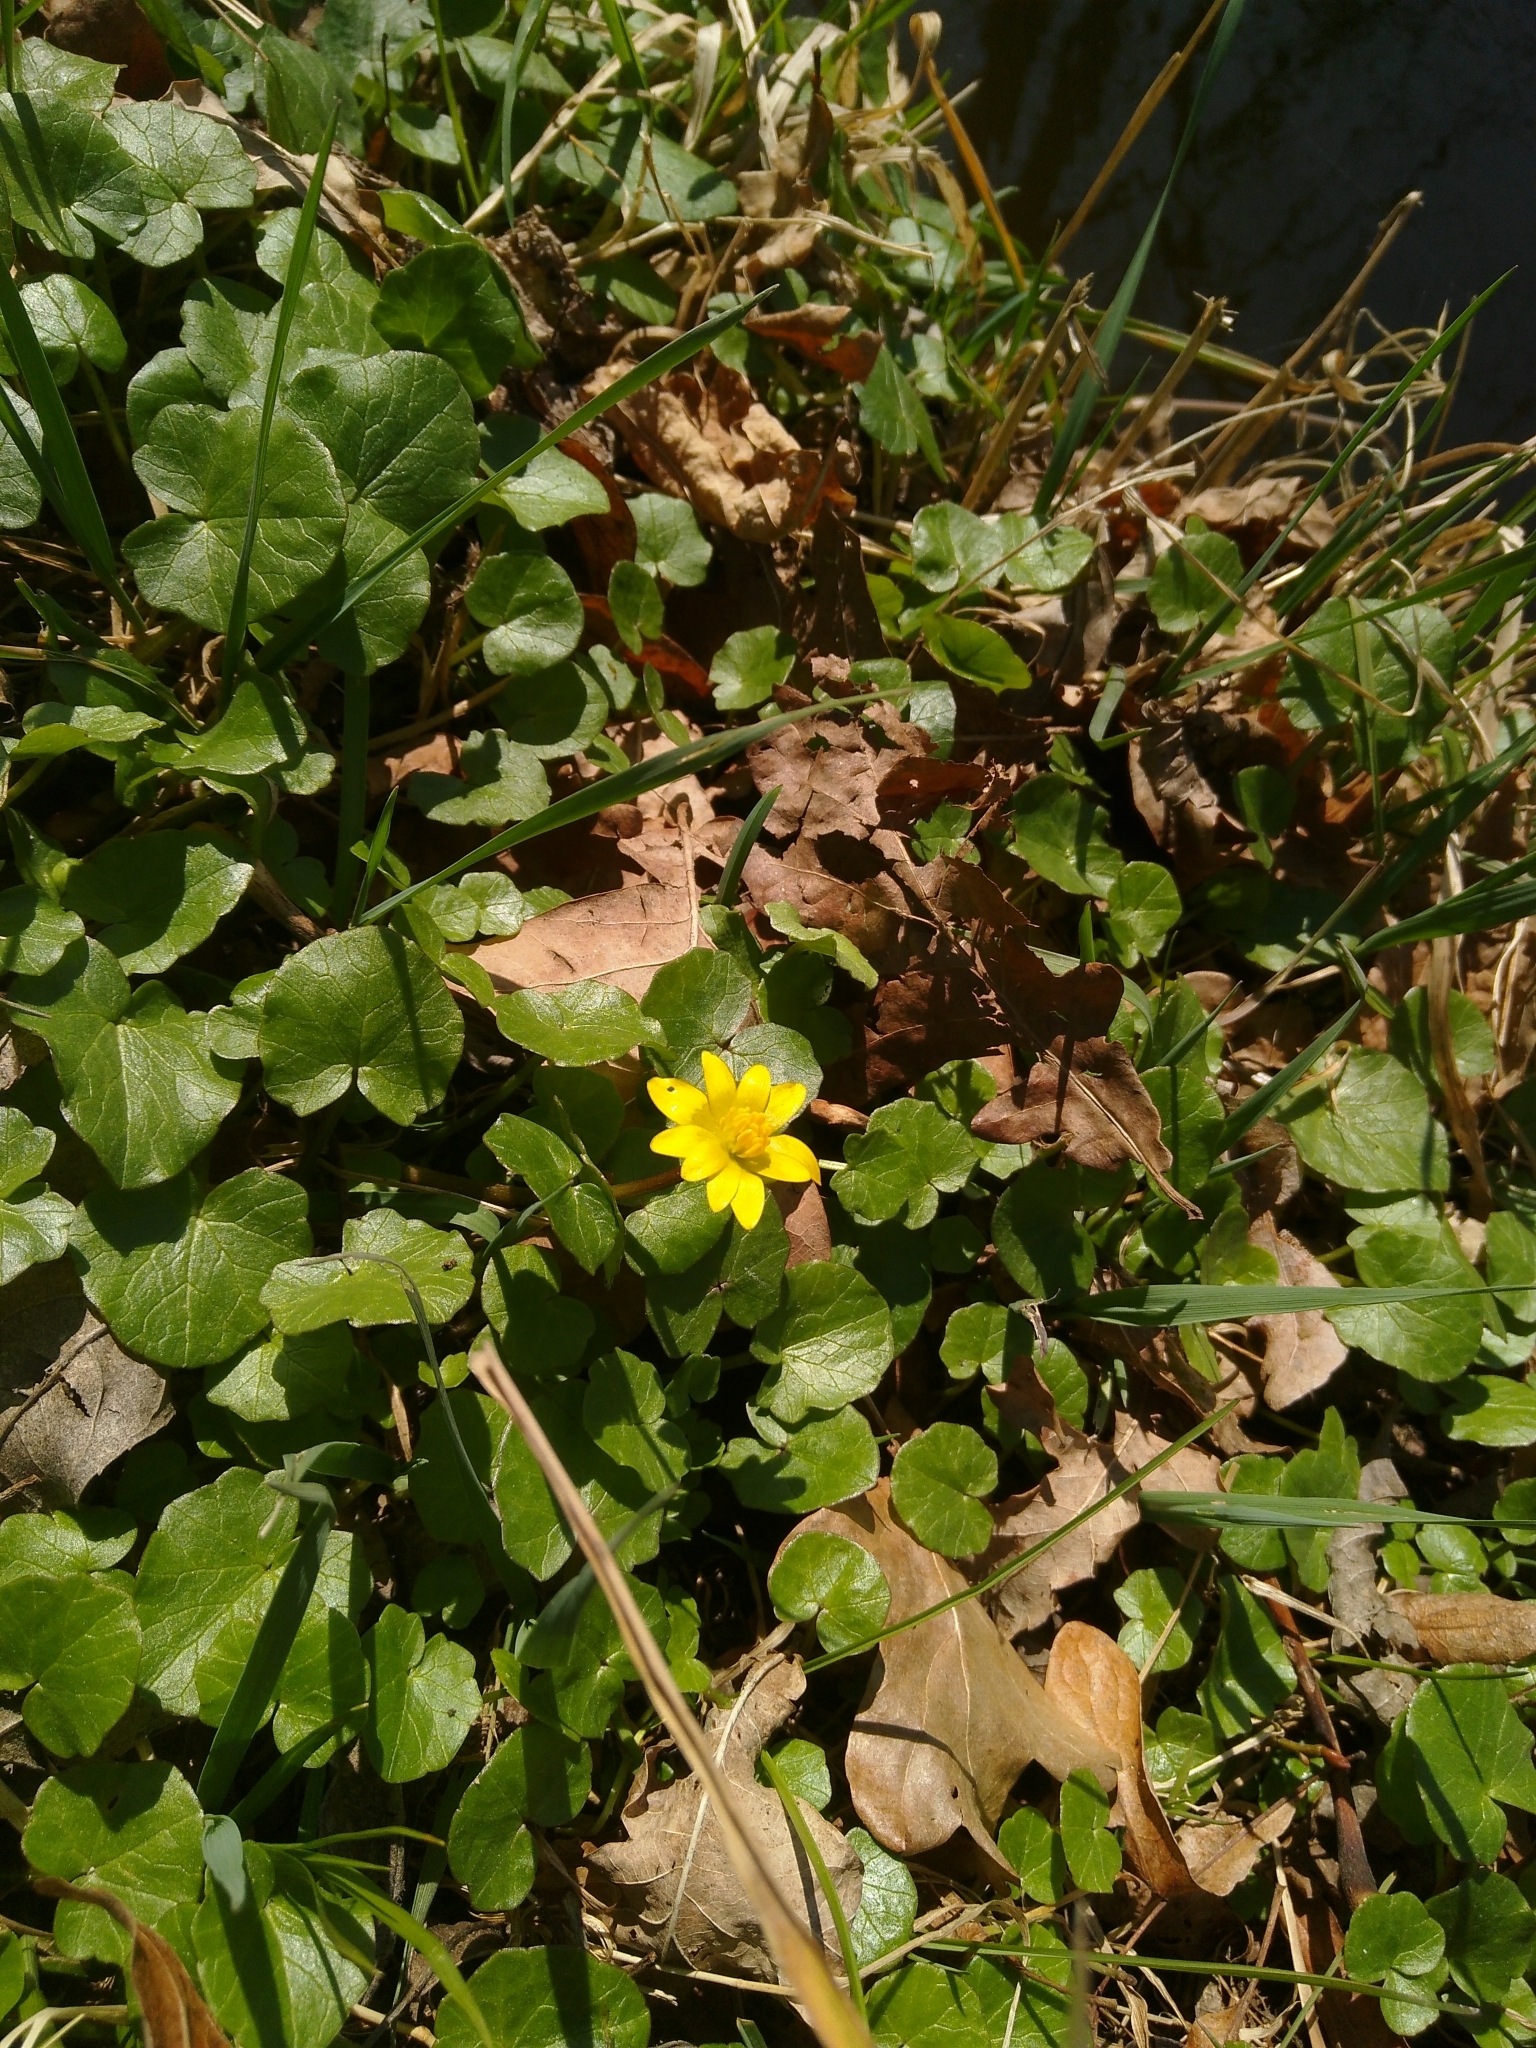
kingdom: Plantae
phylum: Tracheophyta
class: Magnoliopsida
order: Ranunculales
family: Ranunculaceae
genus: Ficaria
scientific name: Ficaria verna
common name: Lesser celandine
